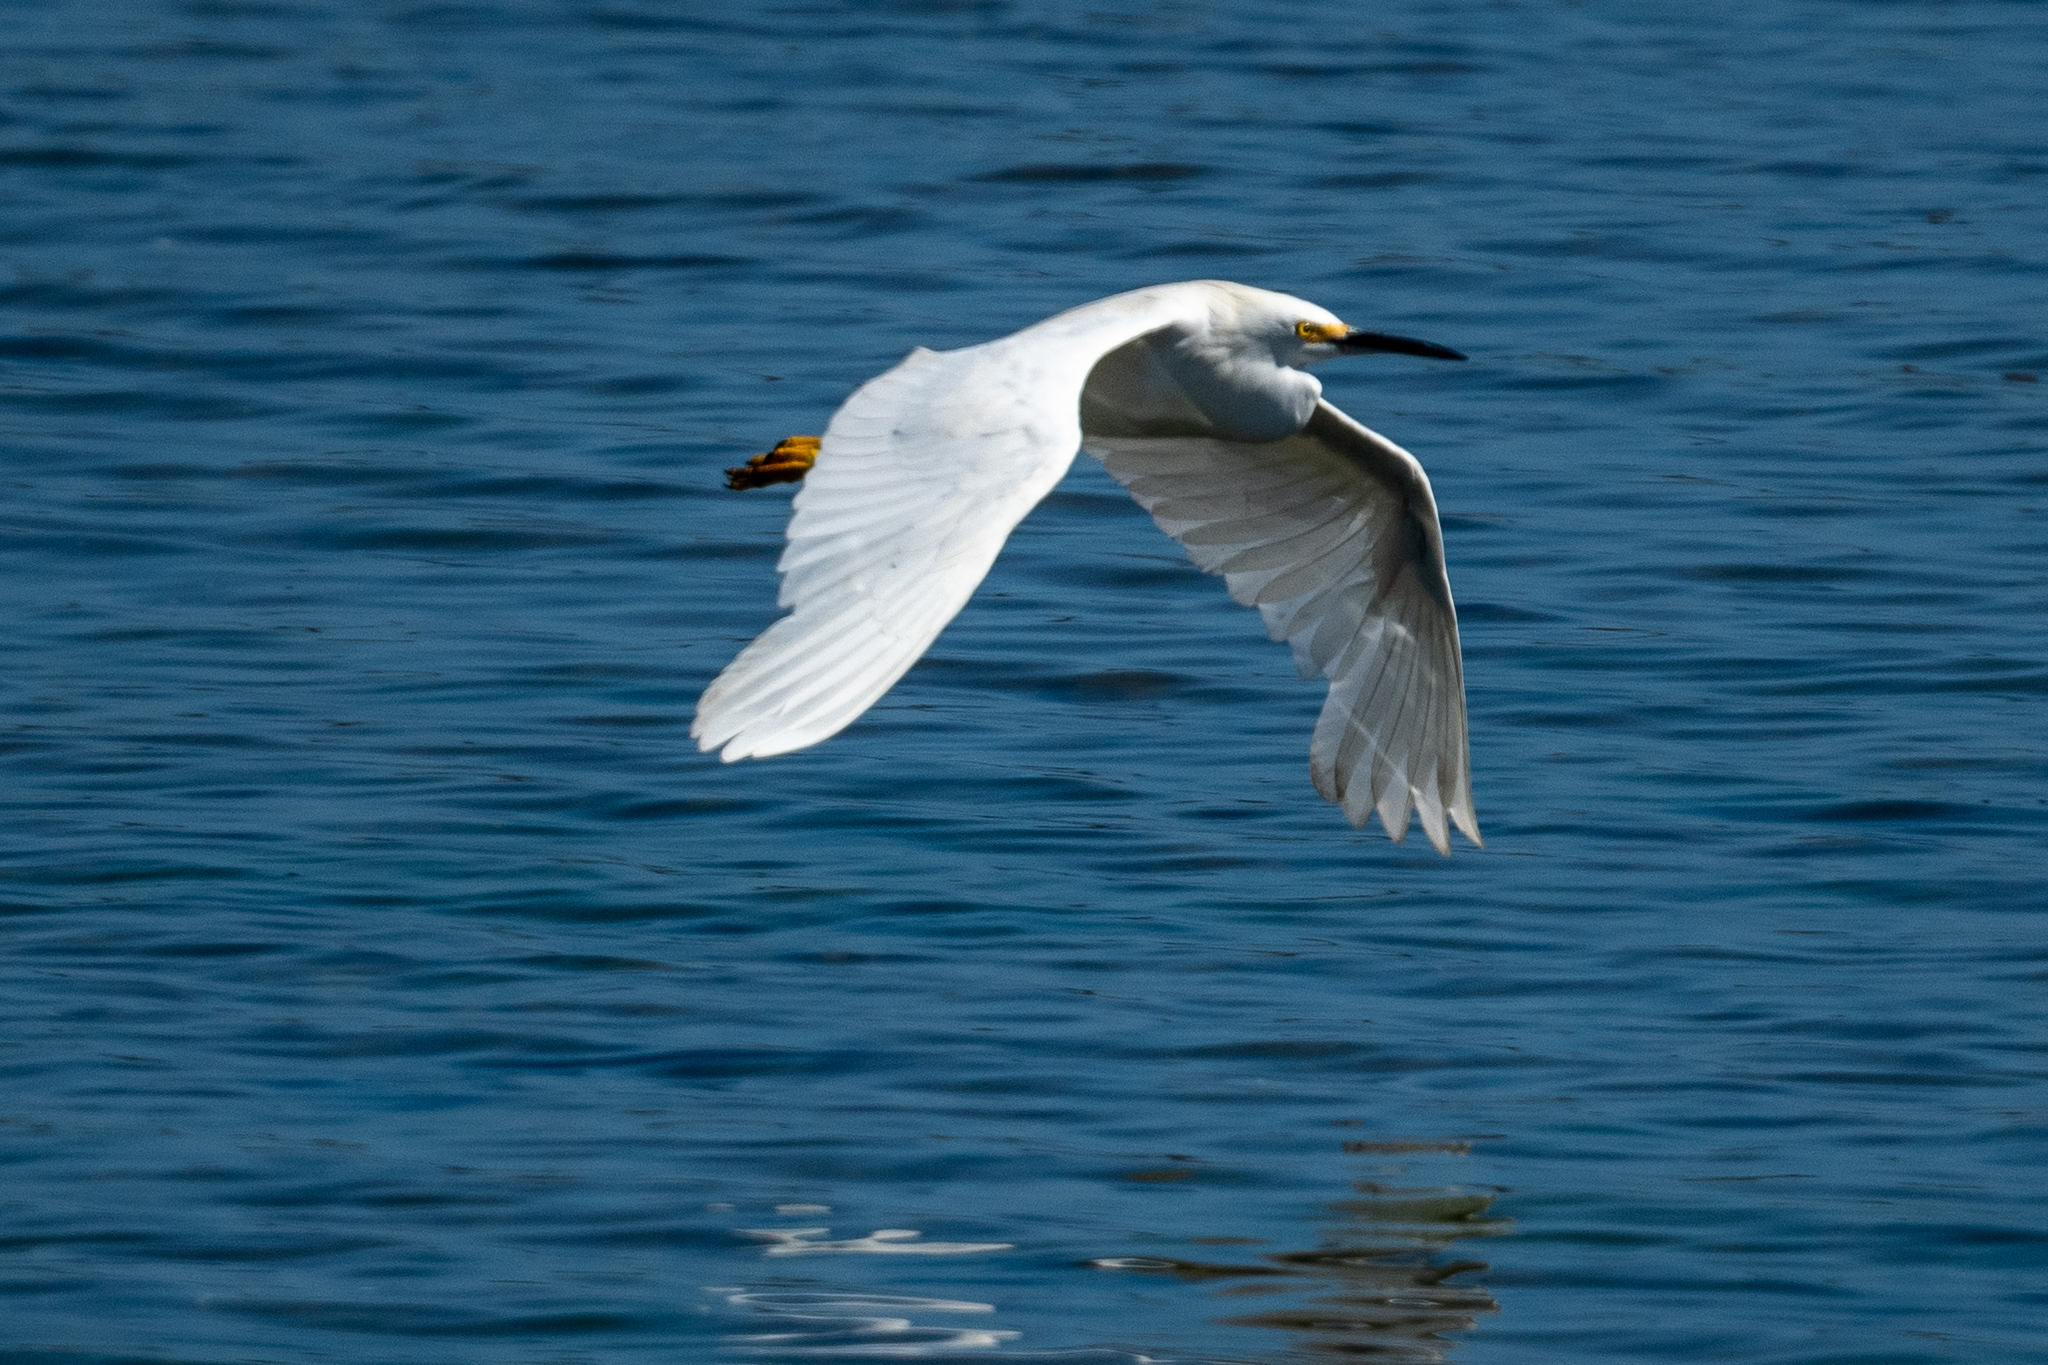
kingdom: Animalia
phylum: Chordata
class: Aves
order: Pelecaniformes
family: Ardeidae
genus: Egretta
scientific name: Egretta thula
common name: Snowy egret
